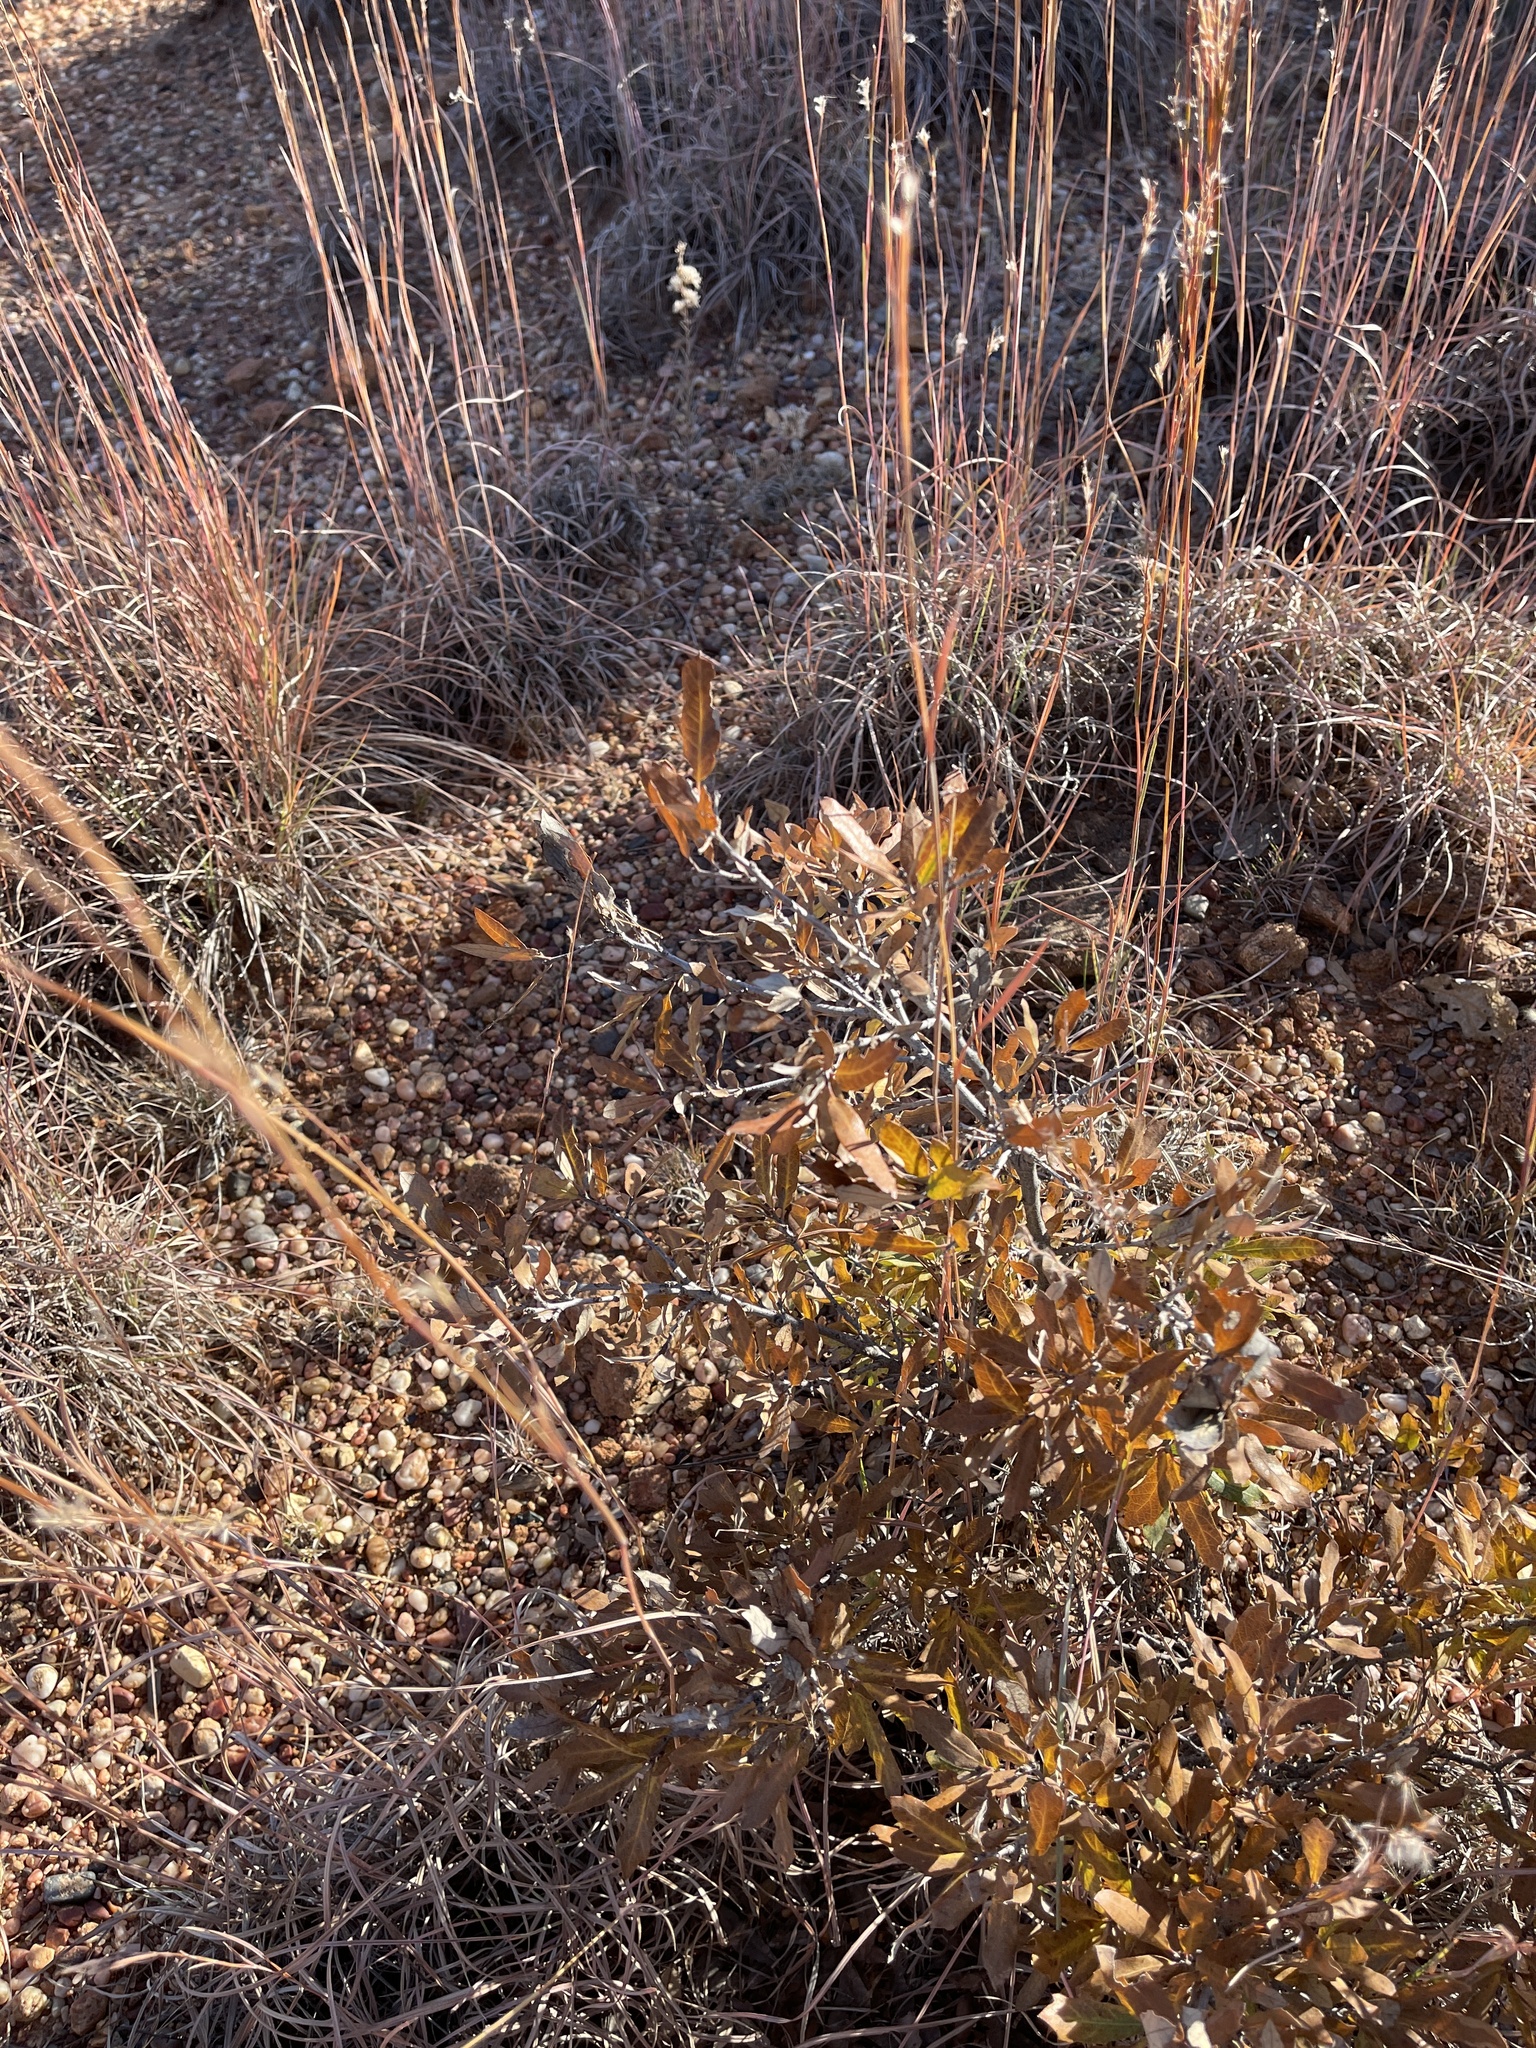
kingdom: Plantae
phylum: Tracheophyta
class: Magnoliopsida
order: Fagales
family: Fagaceae
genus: Quercus
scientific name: Quercus mohriana
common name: Mohr oak
